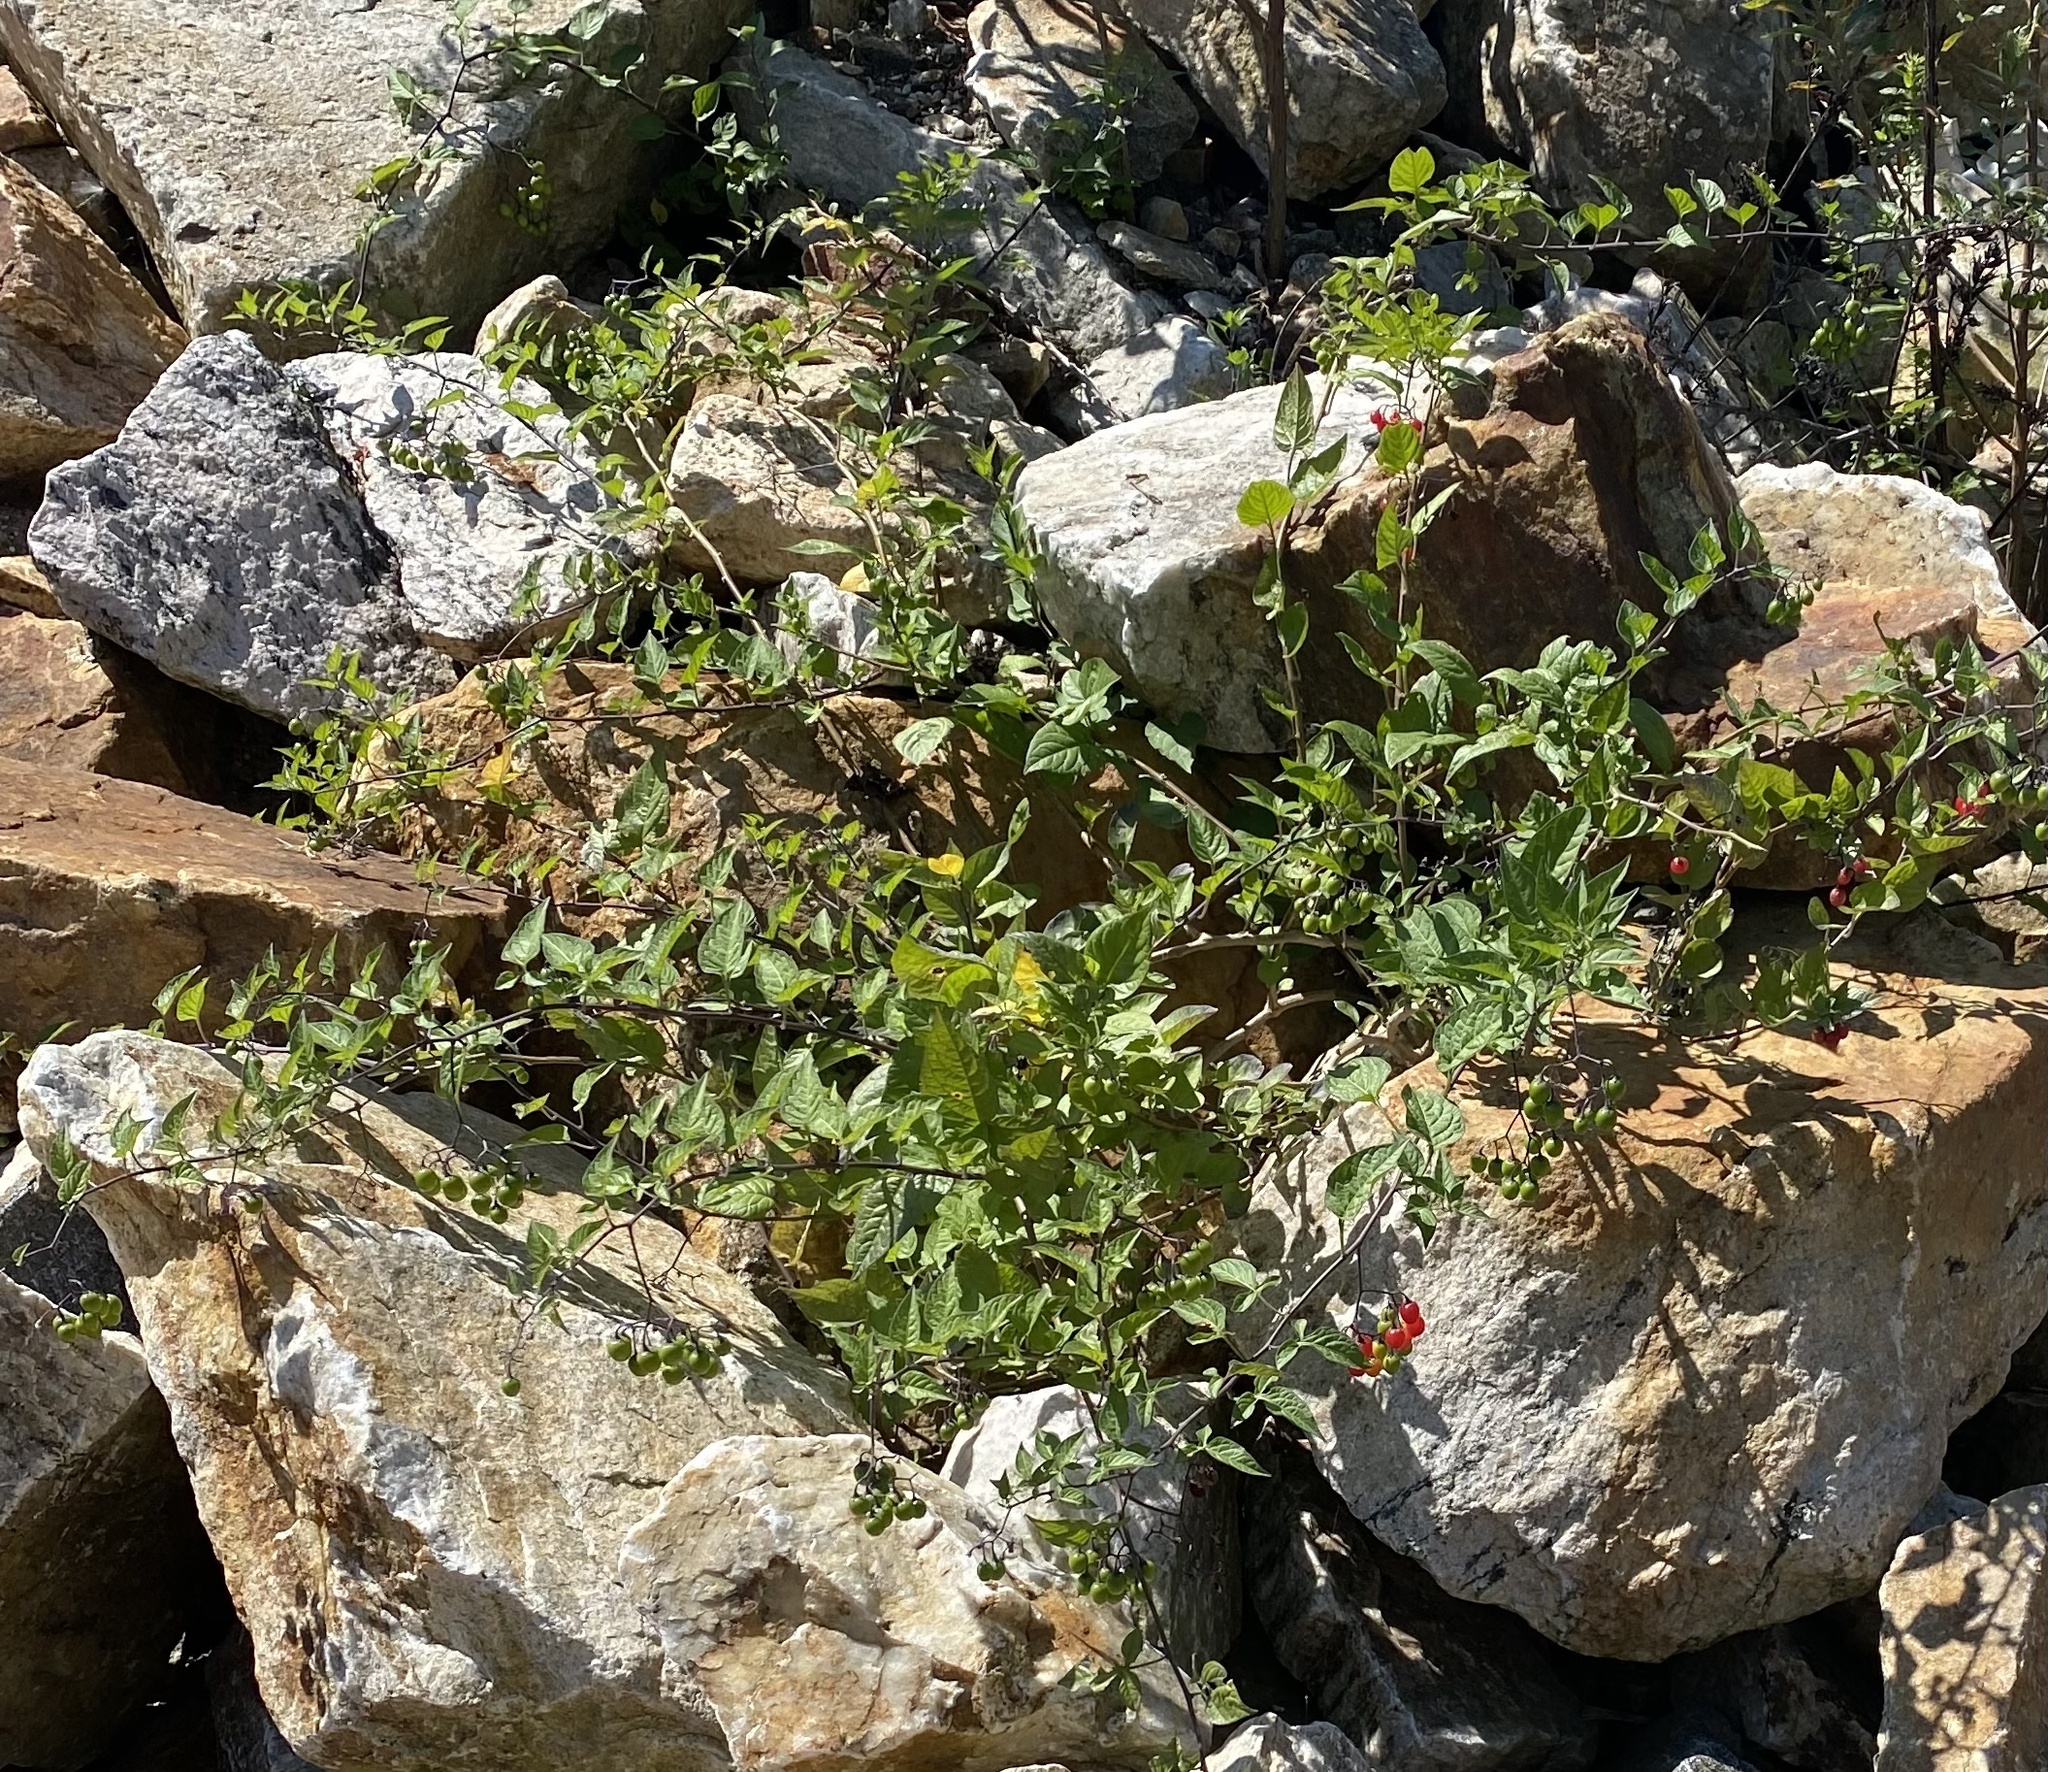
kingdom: Plantae
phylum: Tracheophyta
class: Magnoliopsida
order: Solanales
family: Solanaceae
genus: Solanum
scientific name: Solanum dulcamara
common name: Climbing nightshade
